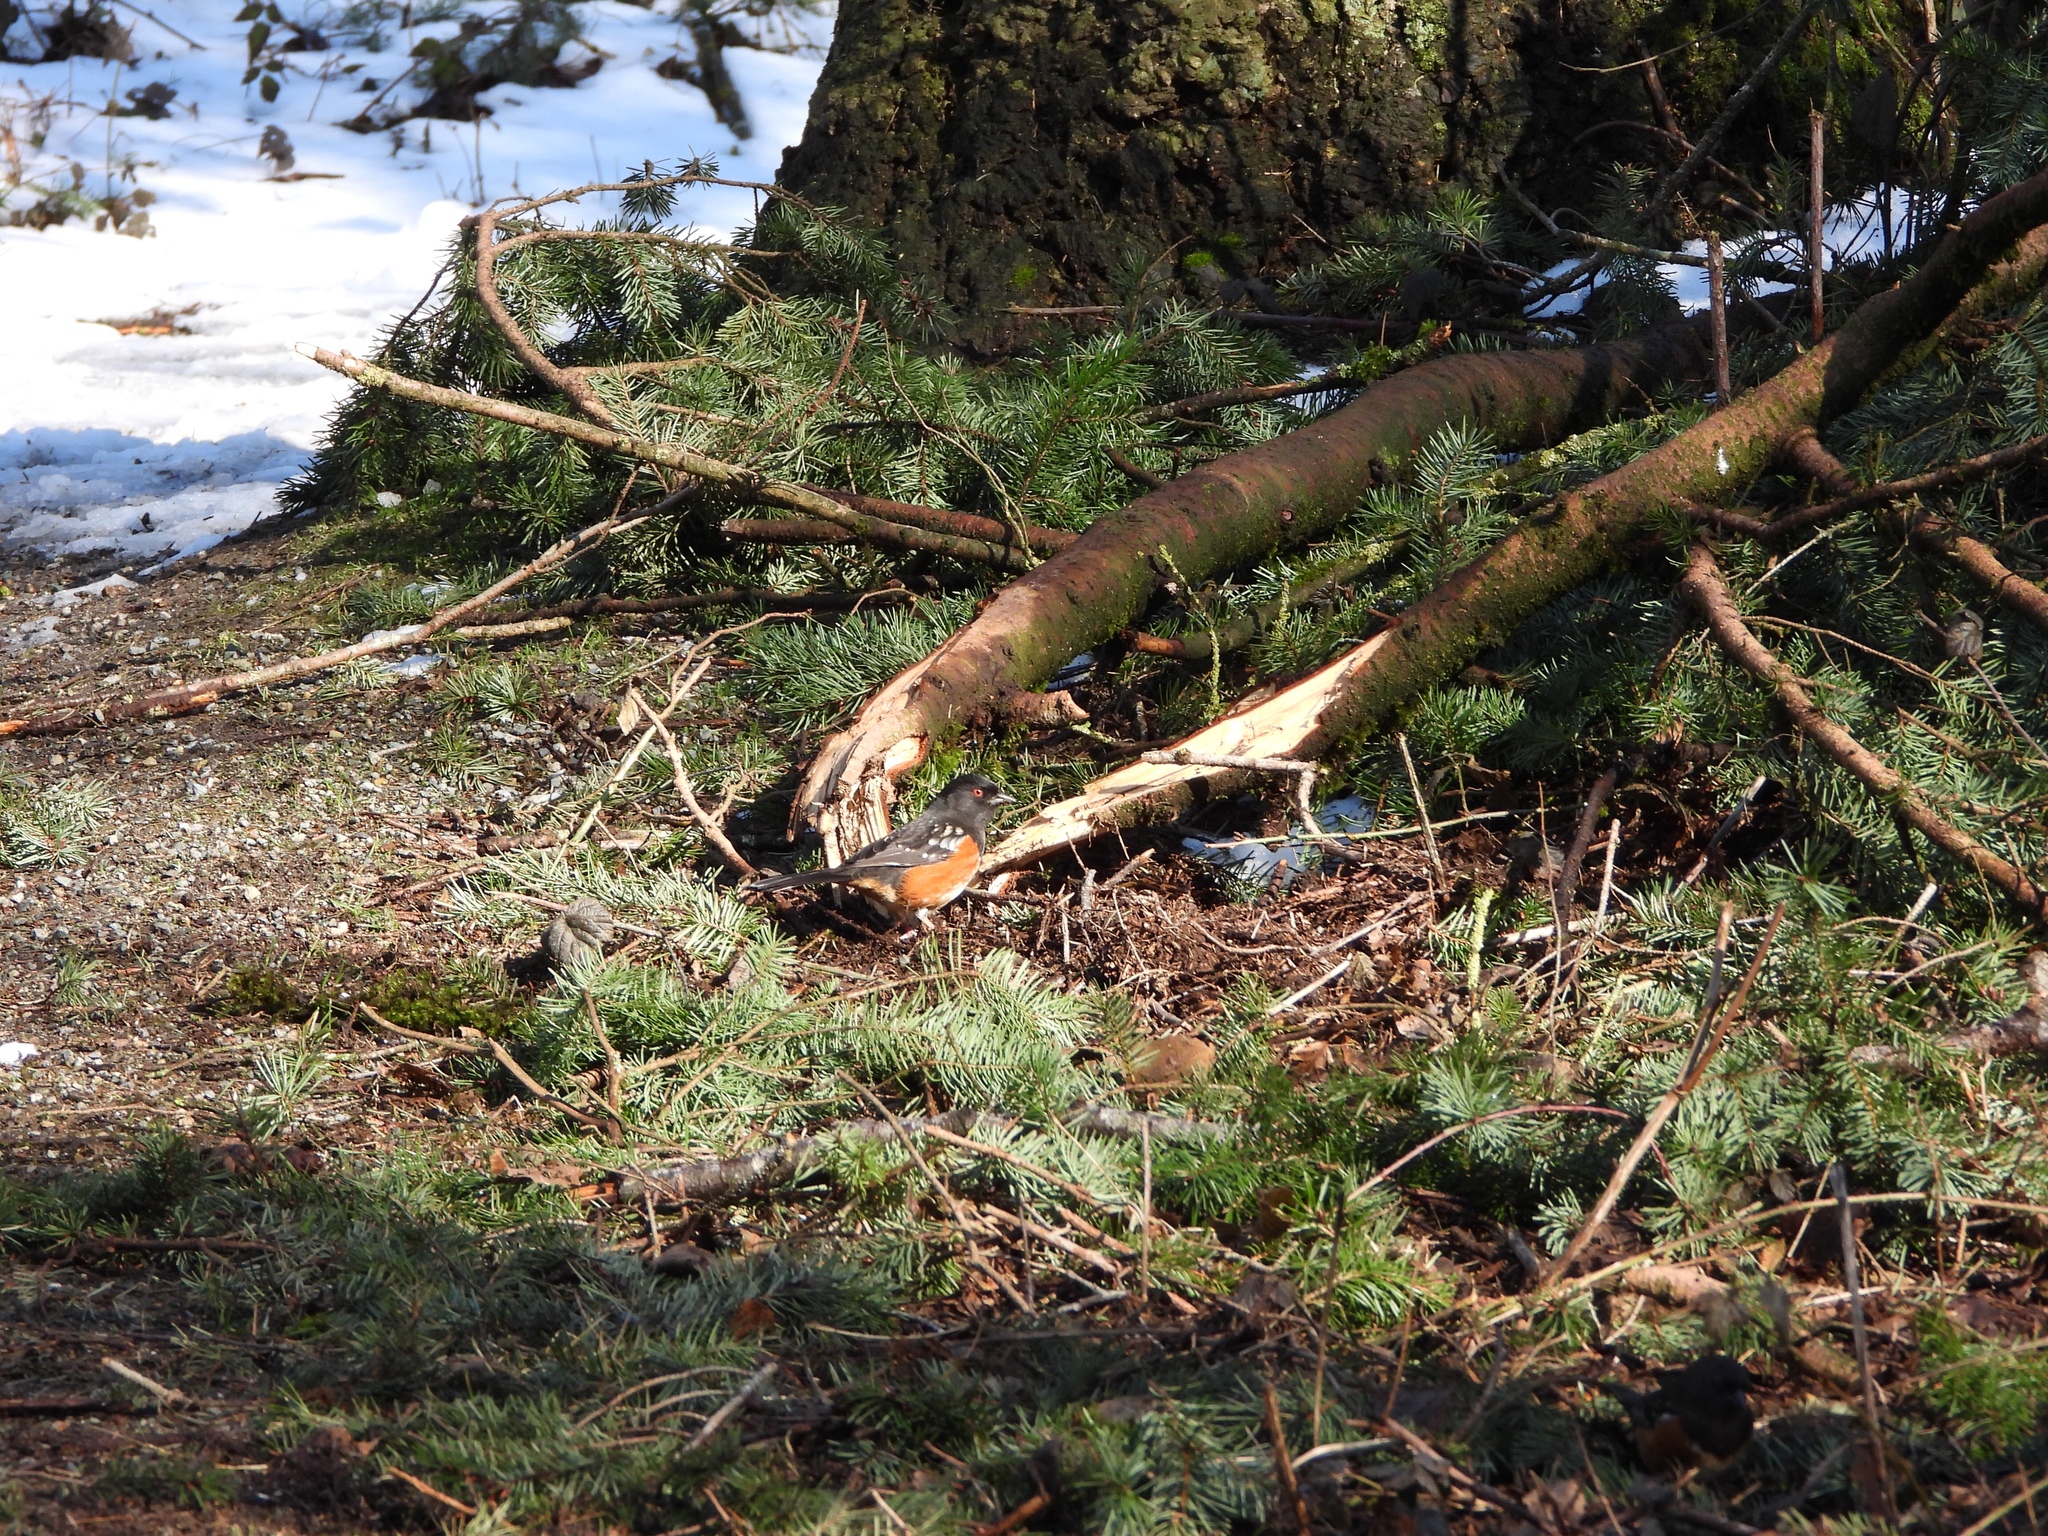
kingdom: Animalia
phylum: Chordata
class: Aves
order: Passeriformes
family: Passerellidae
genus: Pipilo
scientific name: Pipilo maculatus
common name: Spotted towhee
